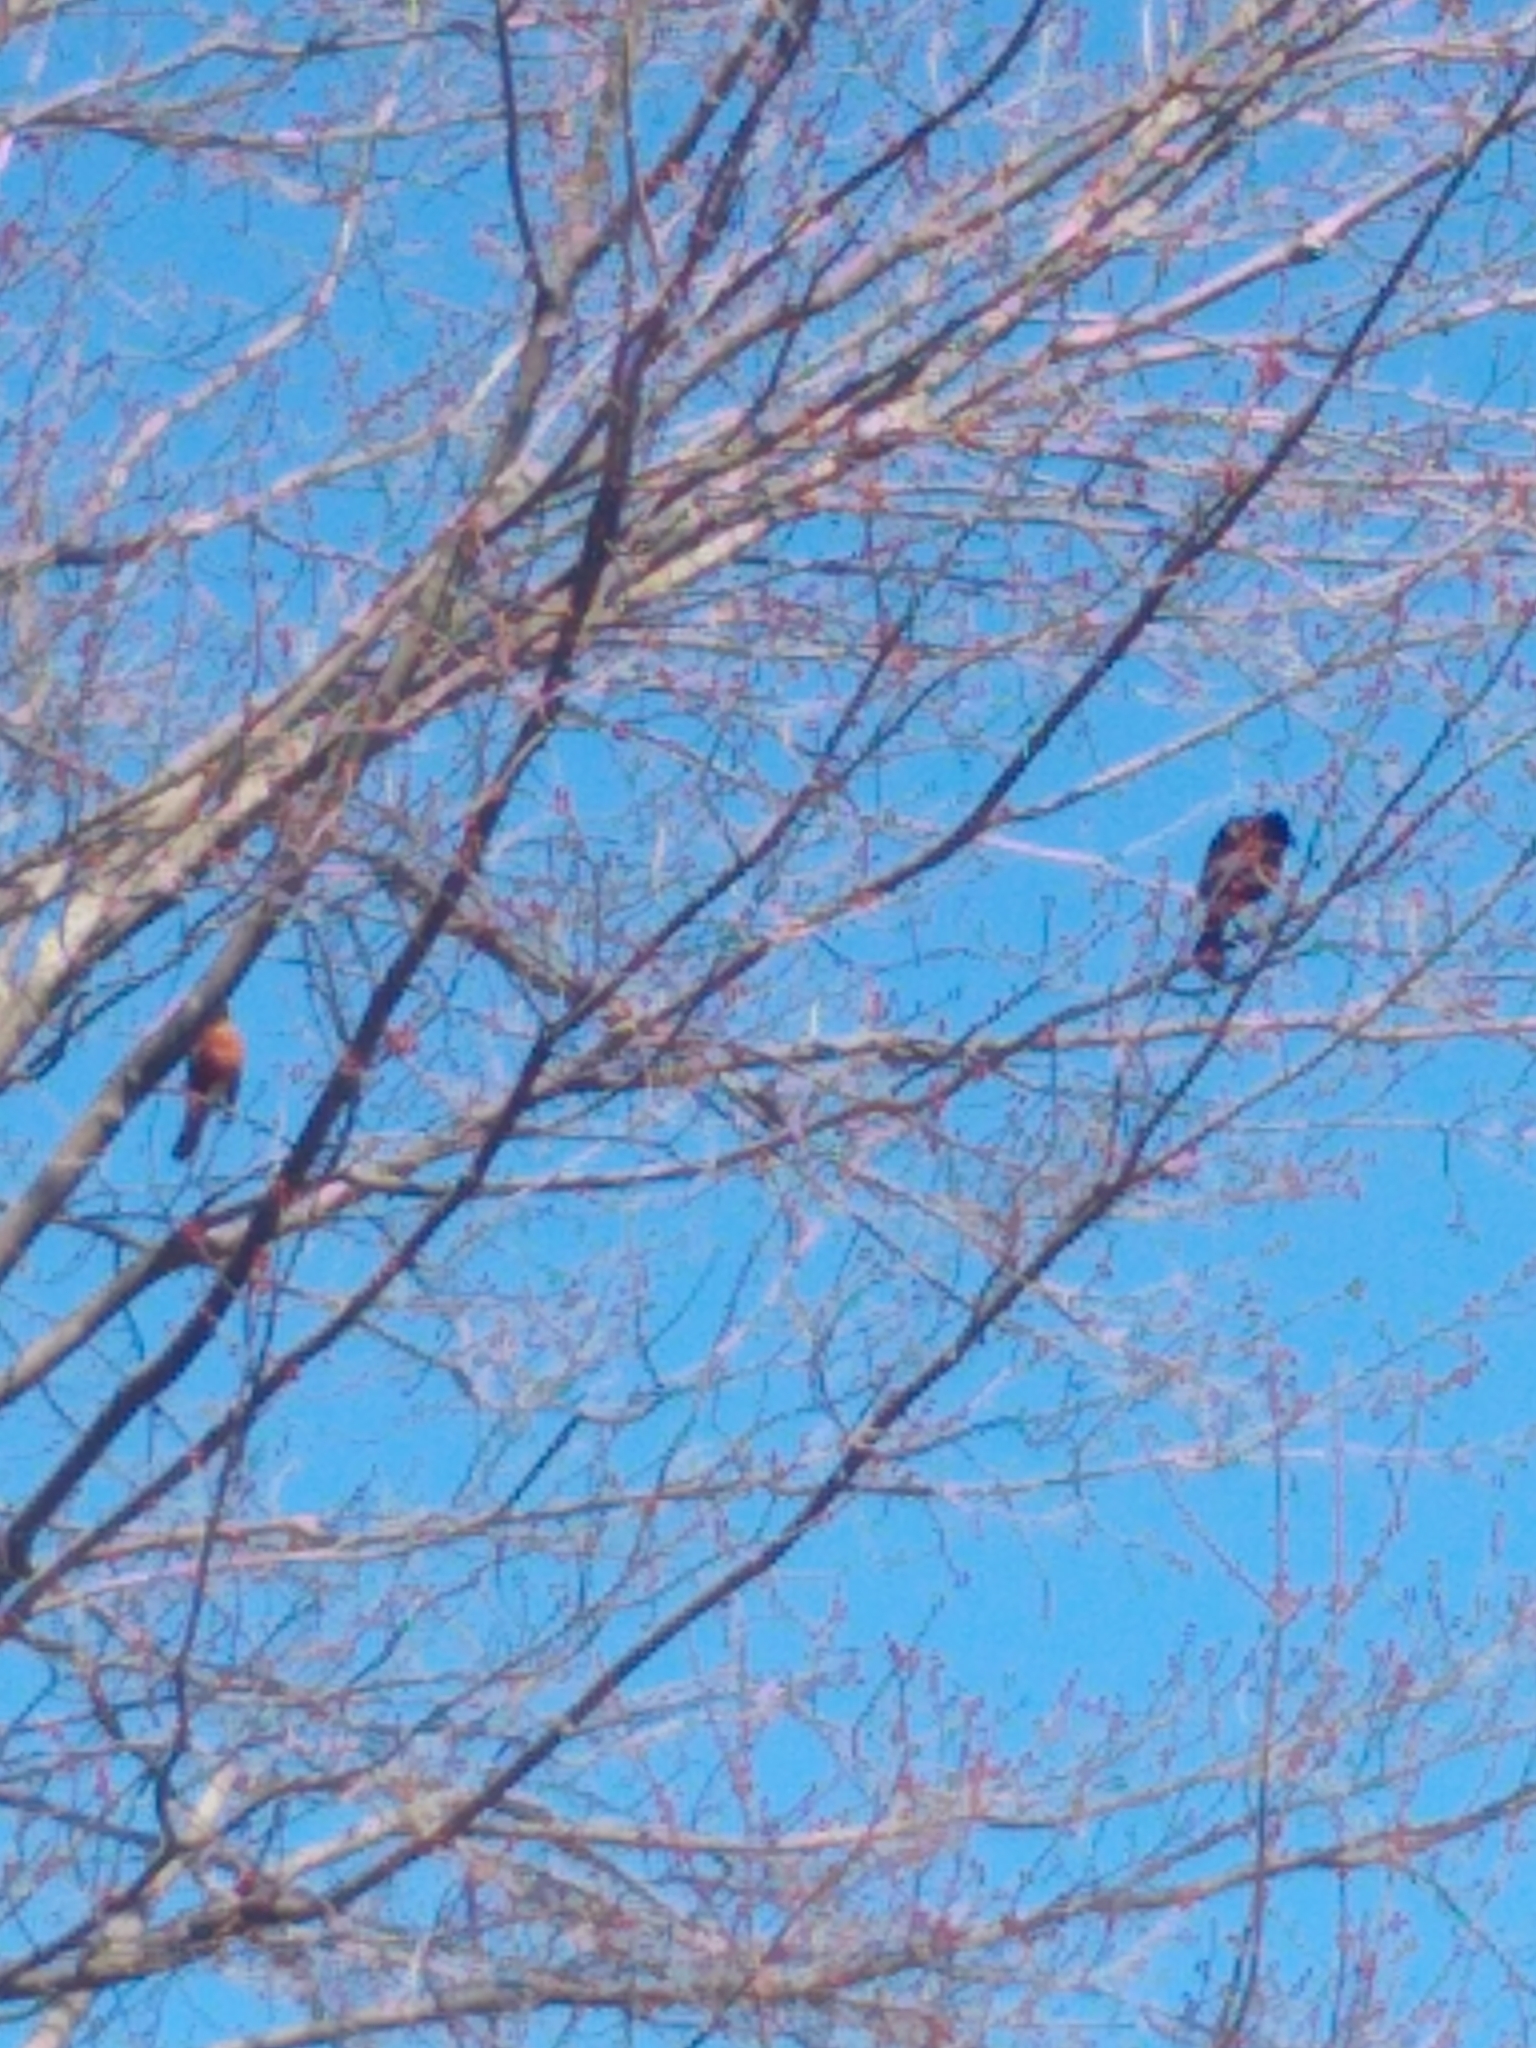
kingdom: Animalia
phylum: Chordata
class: Aves
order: Passeriformes
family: Icteridae
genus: Quiscalus
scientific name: Quiscalus quiscula
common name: Common grackle
